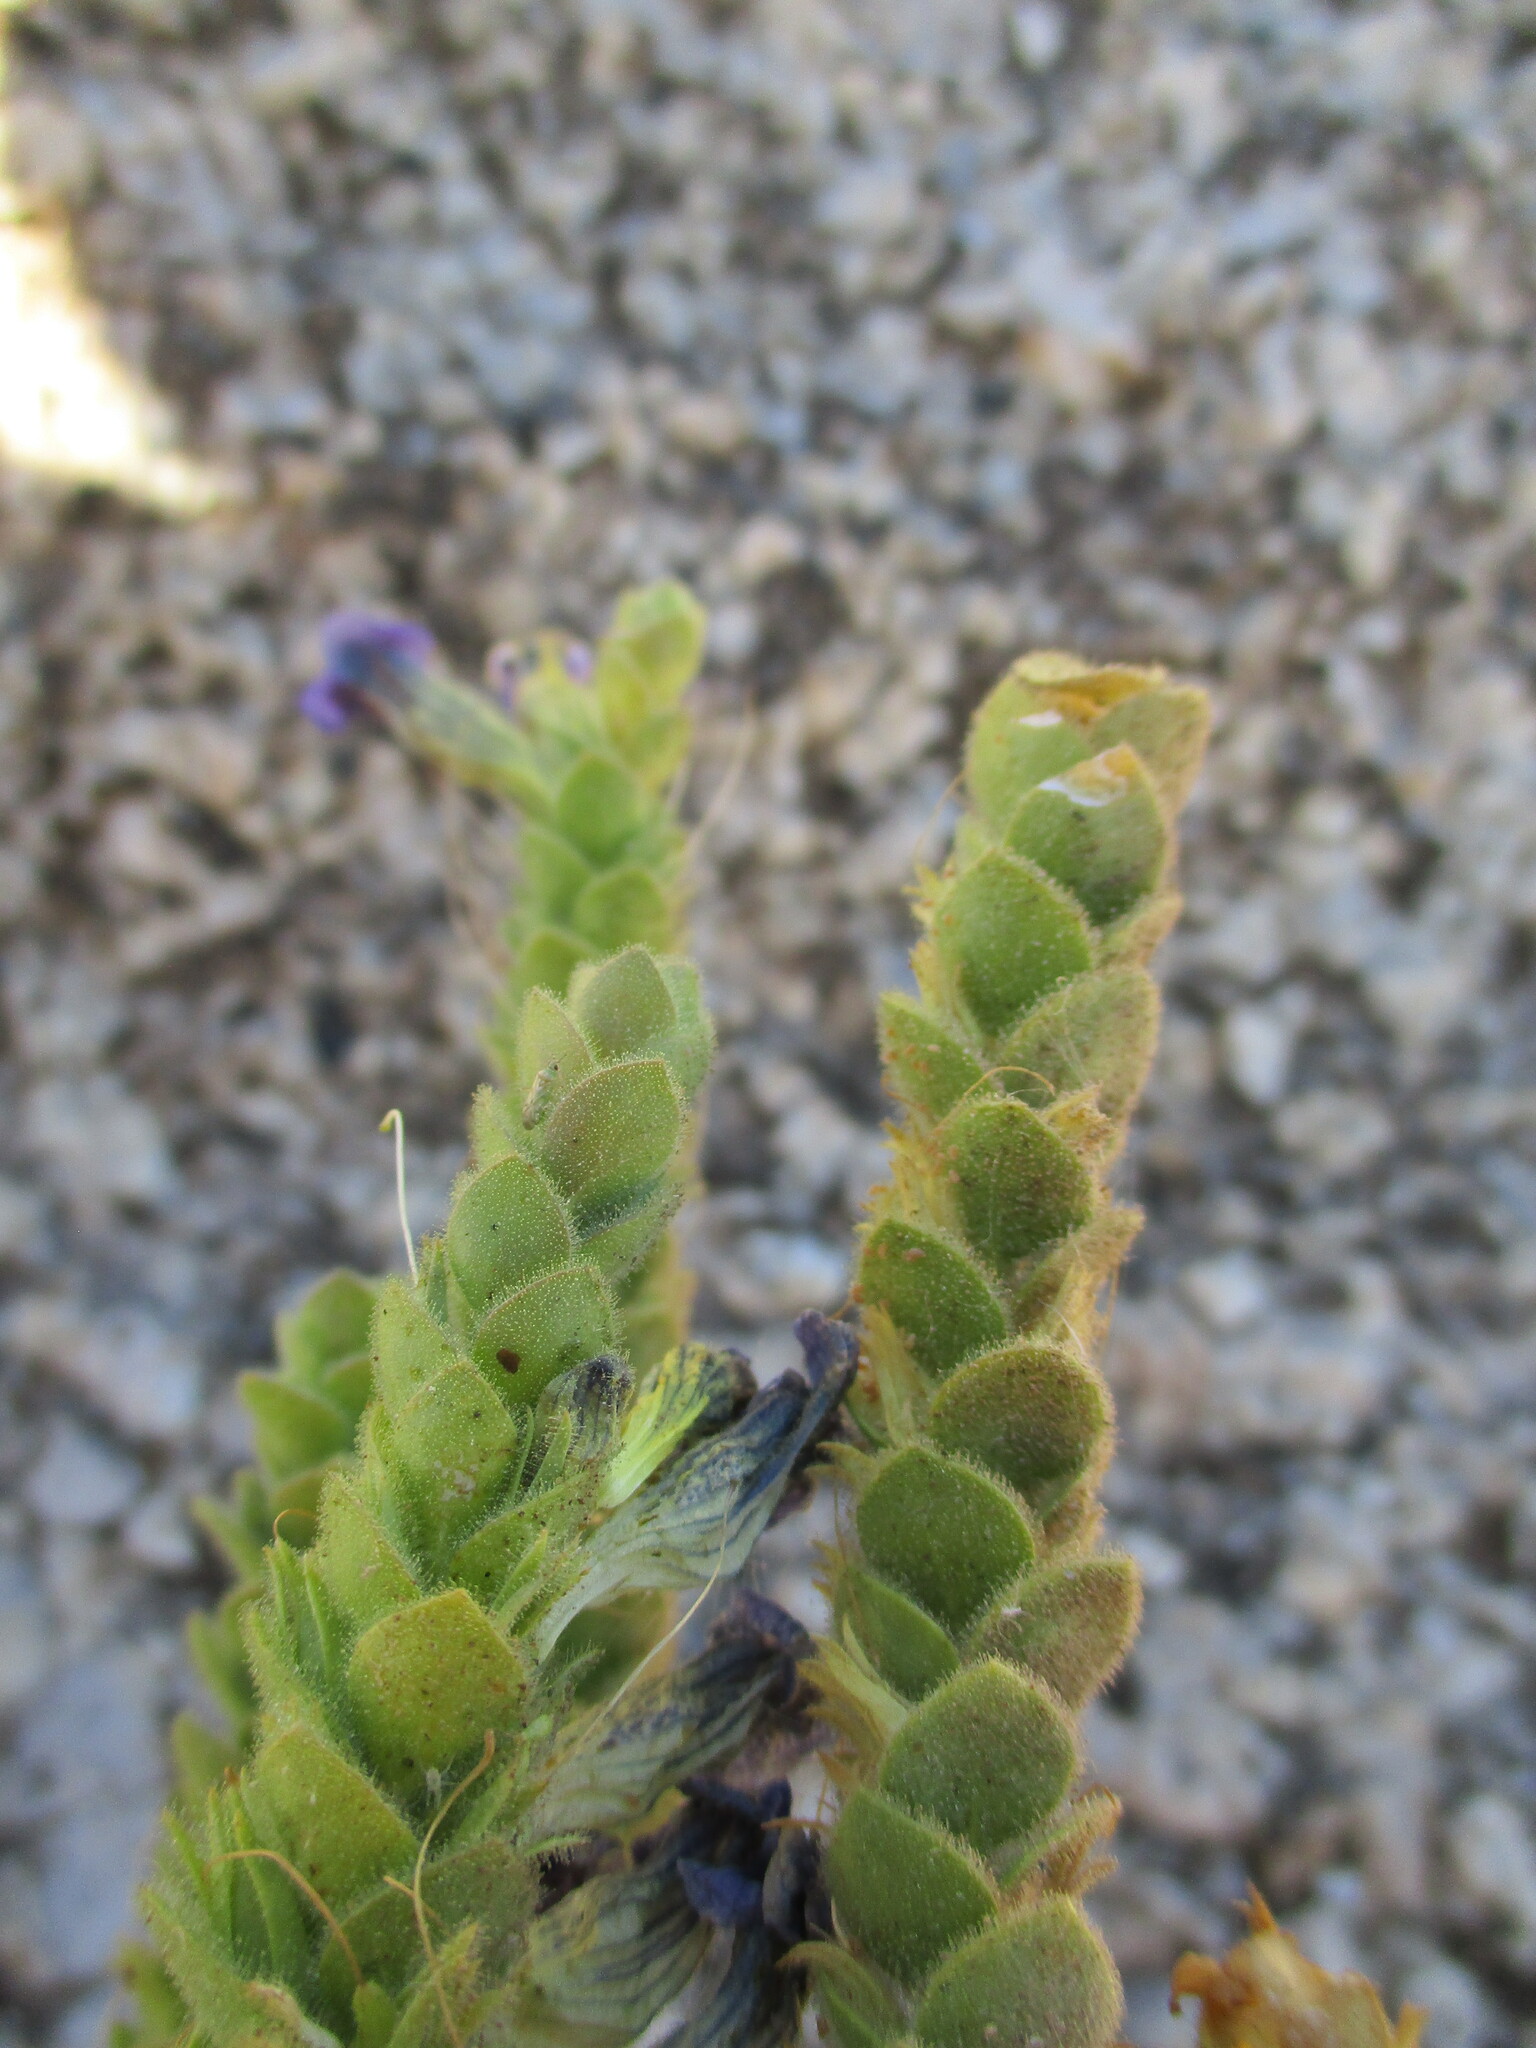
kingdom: Plantae
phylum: Tracheophyta
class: Magnoliopsida
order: Lamiales
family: Scrophulariaceae
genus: Anticharis
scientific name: Anticharis imbricata
